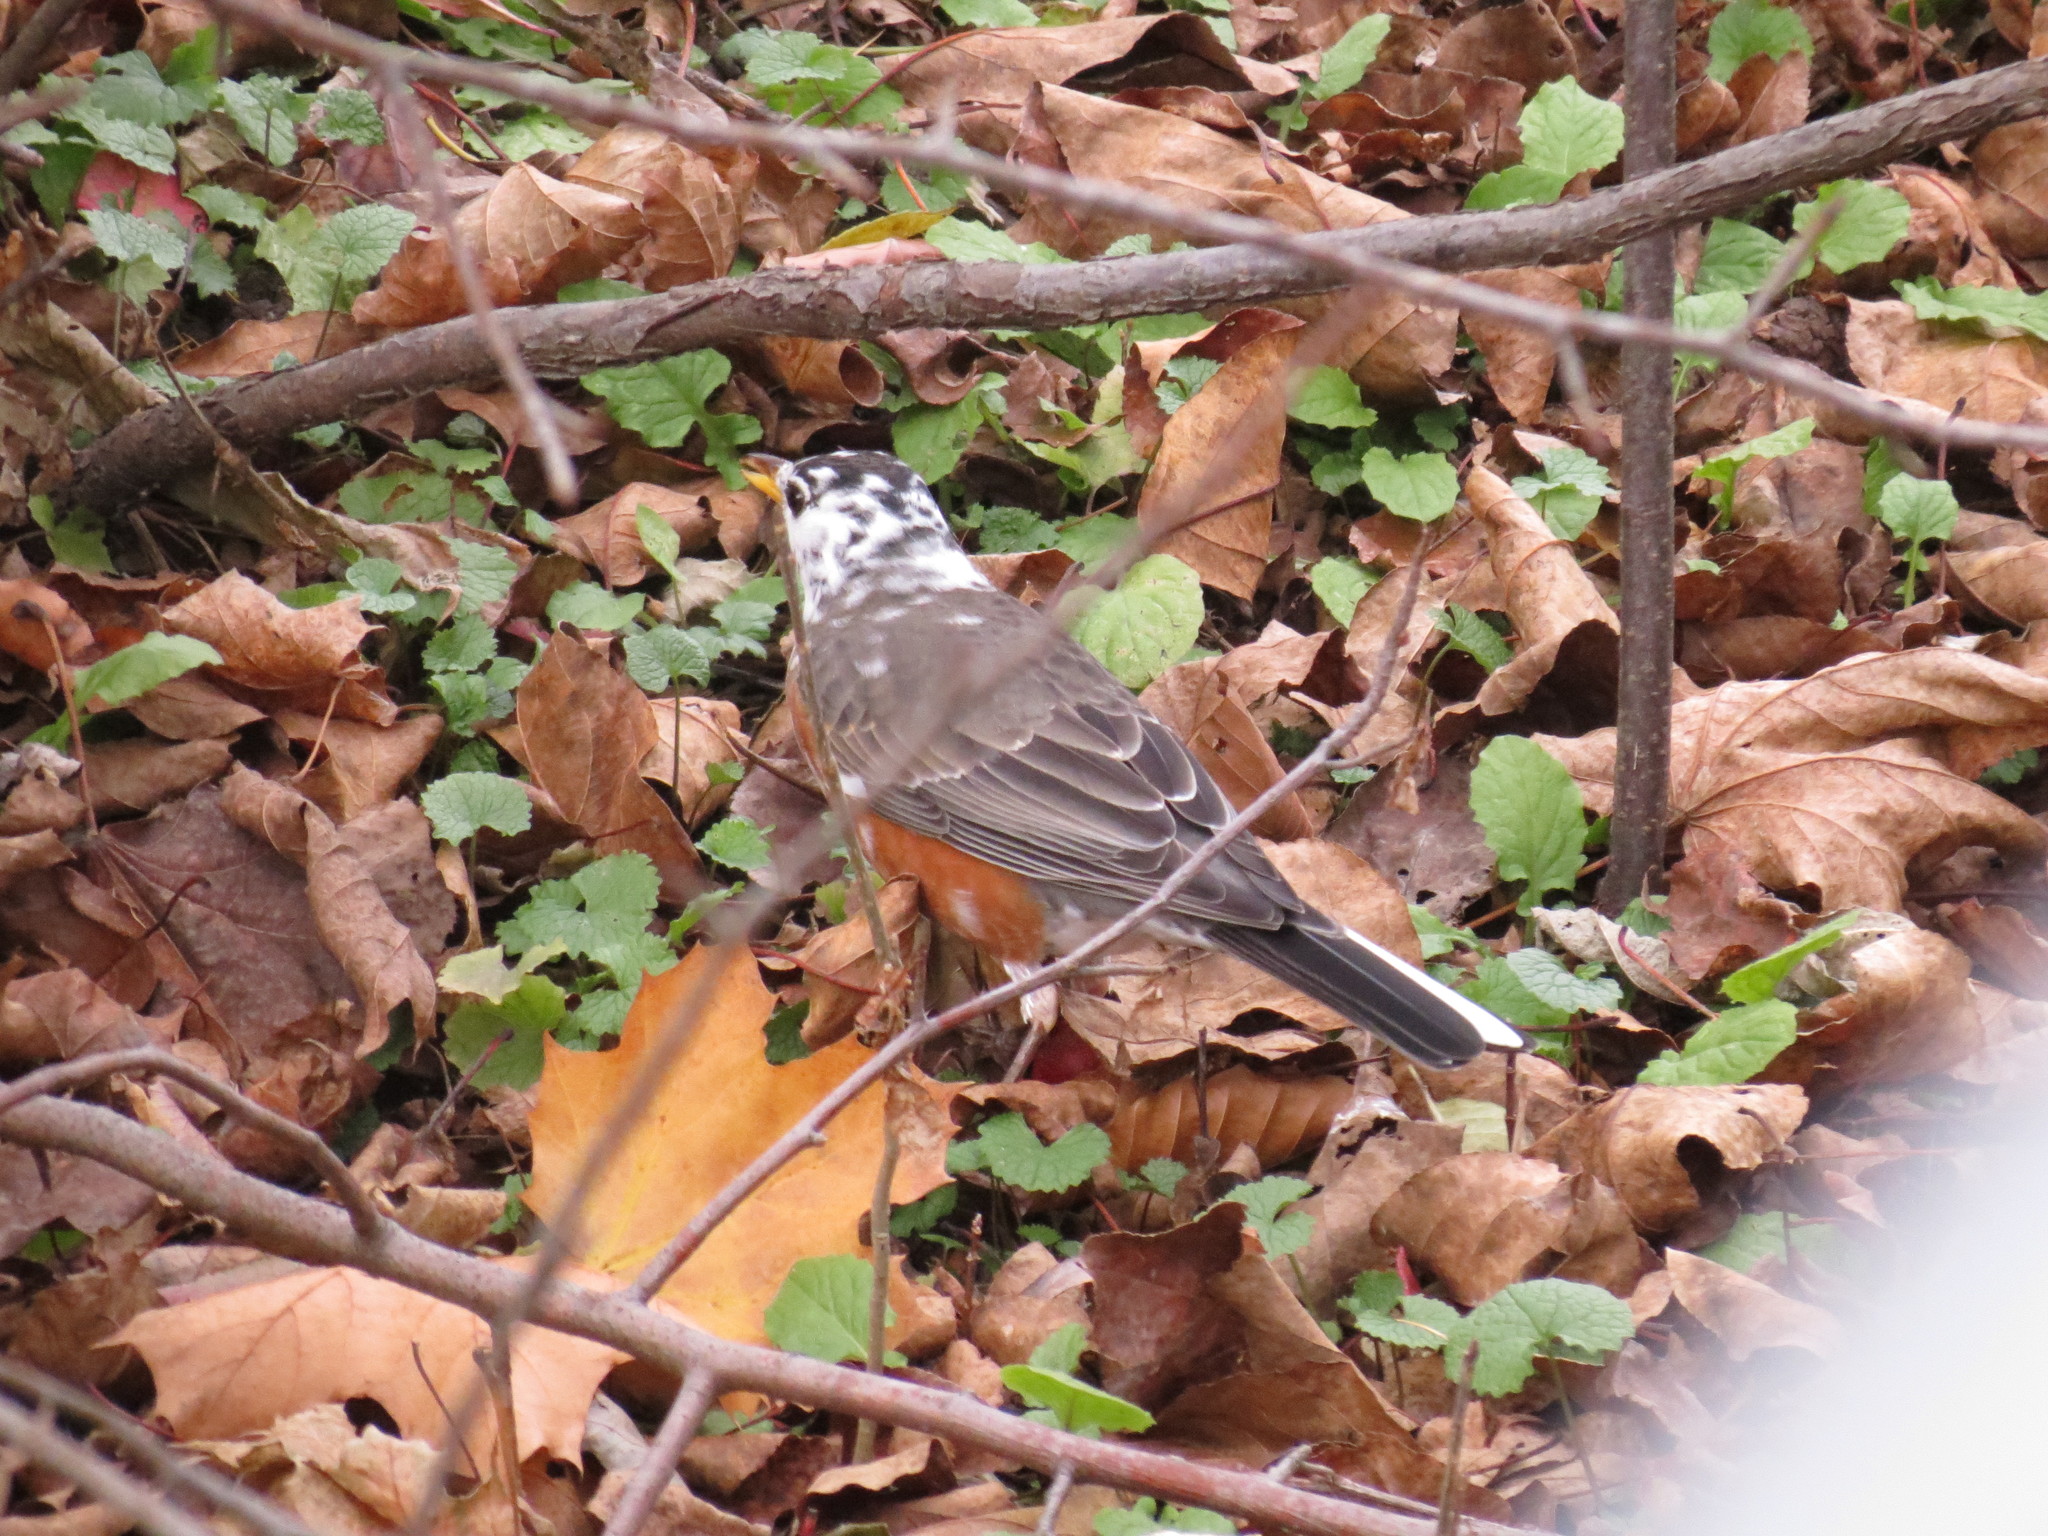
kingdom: Animalia
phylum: Chordata
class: Aves
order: Passeriformes
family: Turdidae
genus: Turdus
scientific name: Turdus migratorius
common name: American robin
